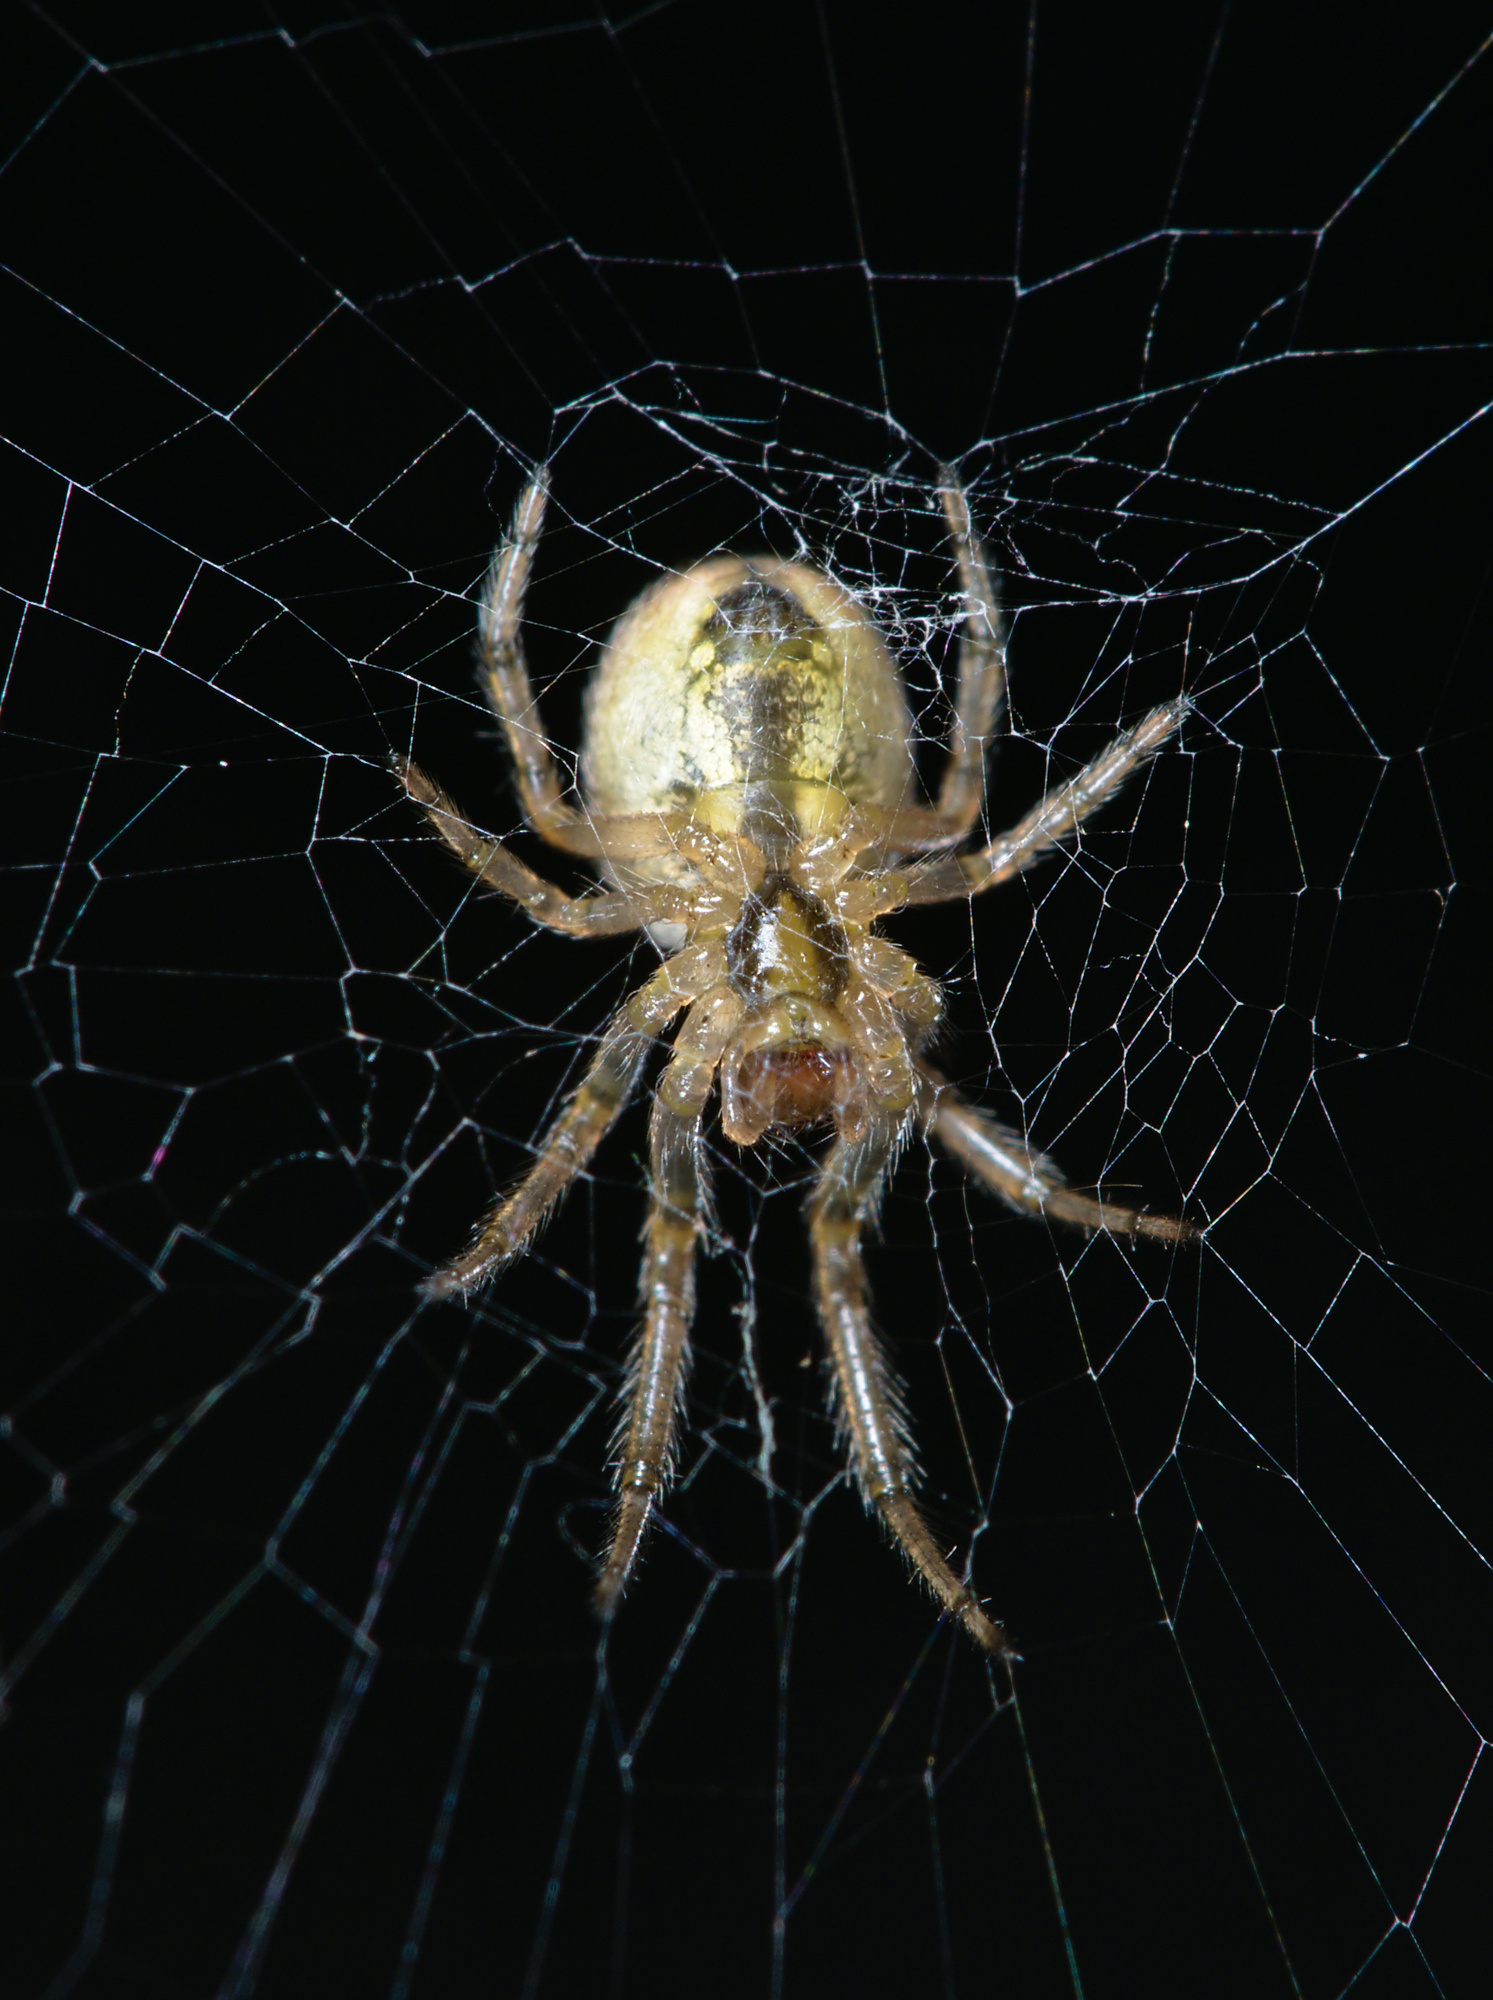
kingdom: Animalia
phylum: Arthropoda
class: Arachnida
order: Araneae
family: Araneidae
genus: Zygiella
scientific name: Zygiella x-notata
